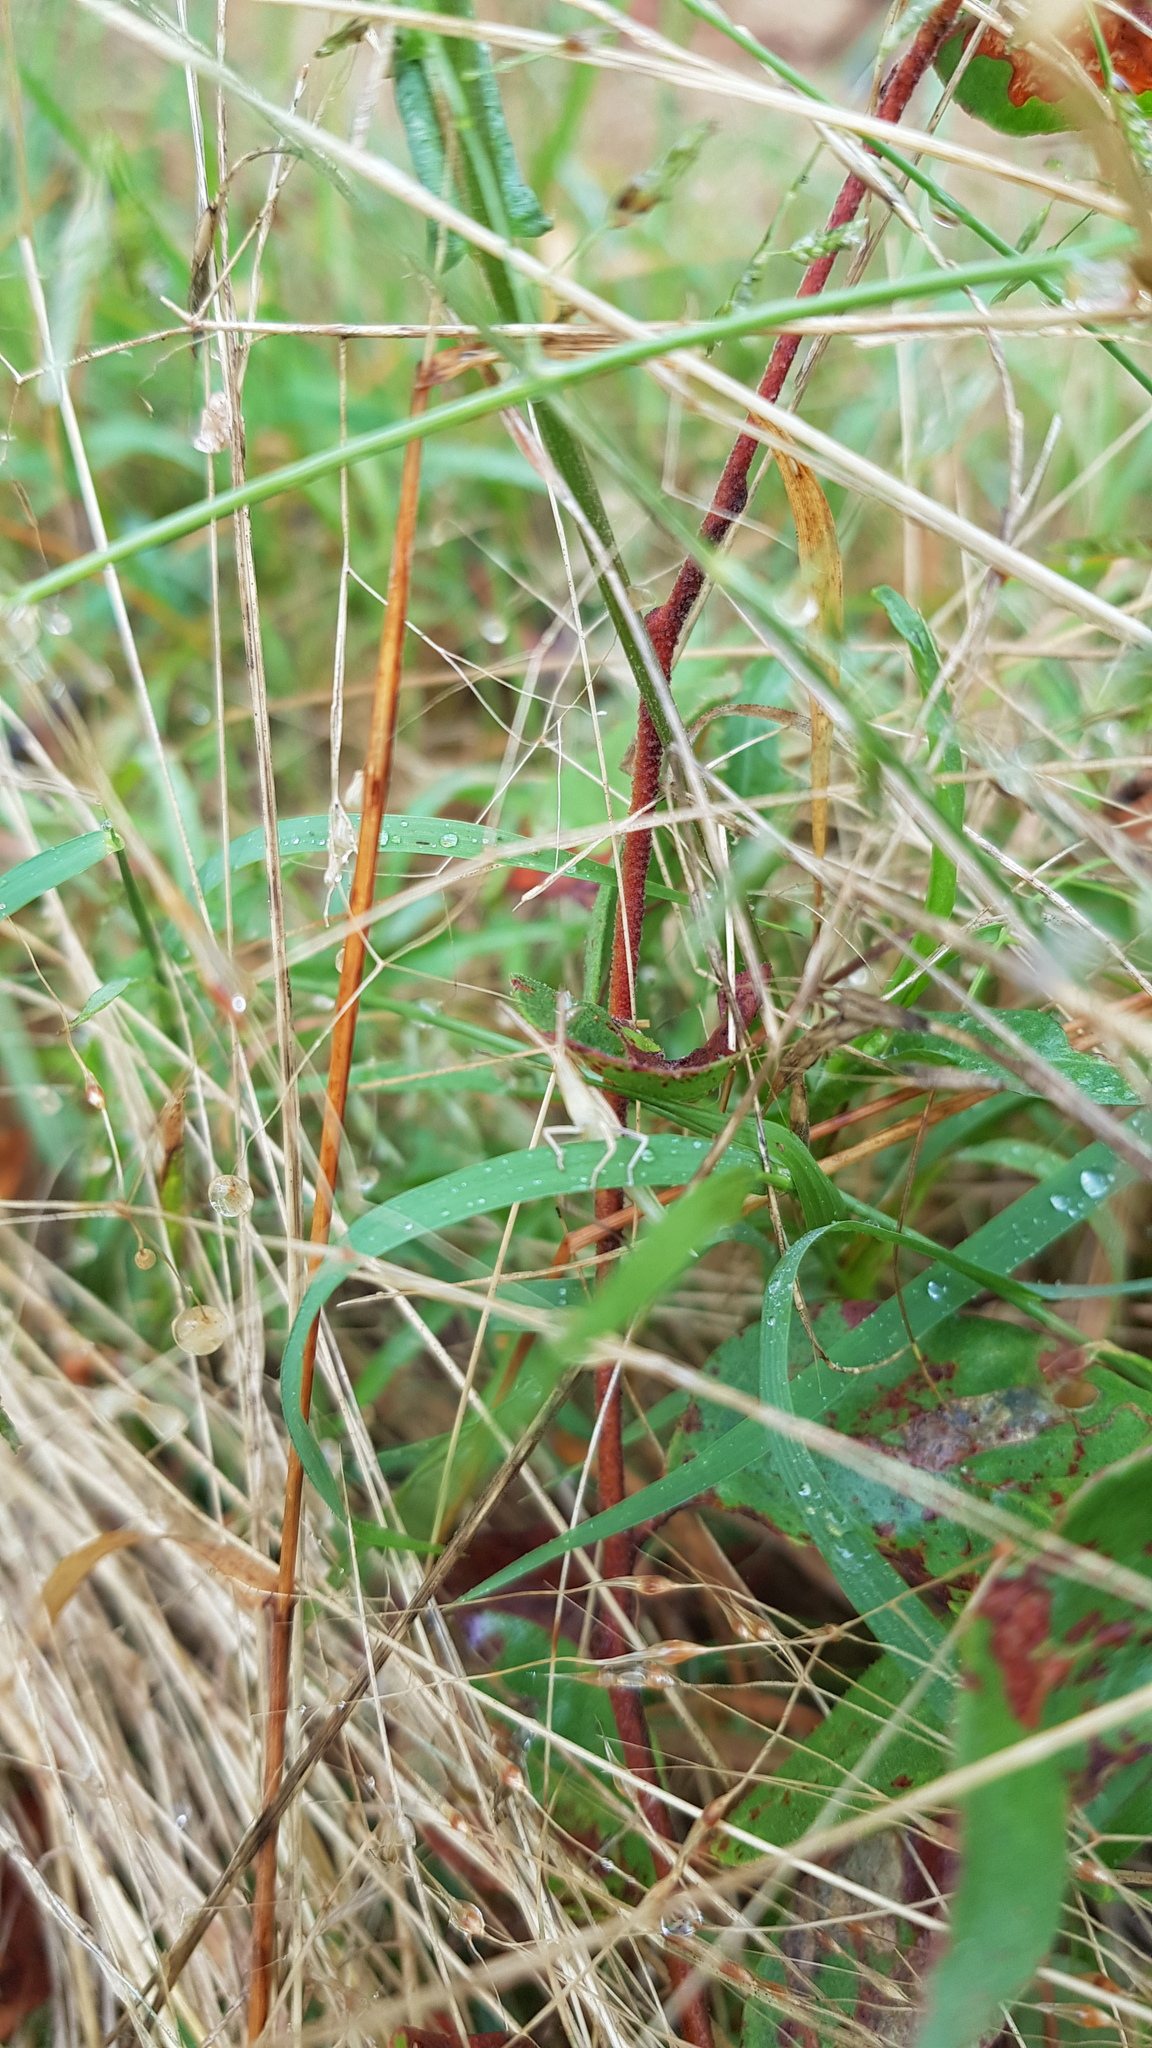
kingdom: Animalia
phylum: Arthropoda
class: Insecta
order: Orthoptera
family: Acrididae
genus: Acrida
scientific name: Acrida conica
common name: Giant green slantface
